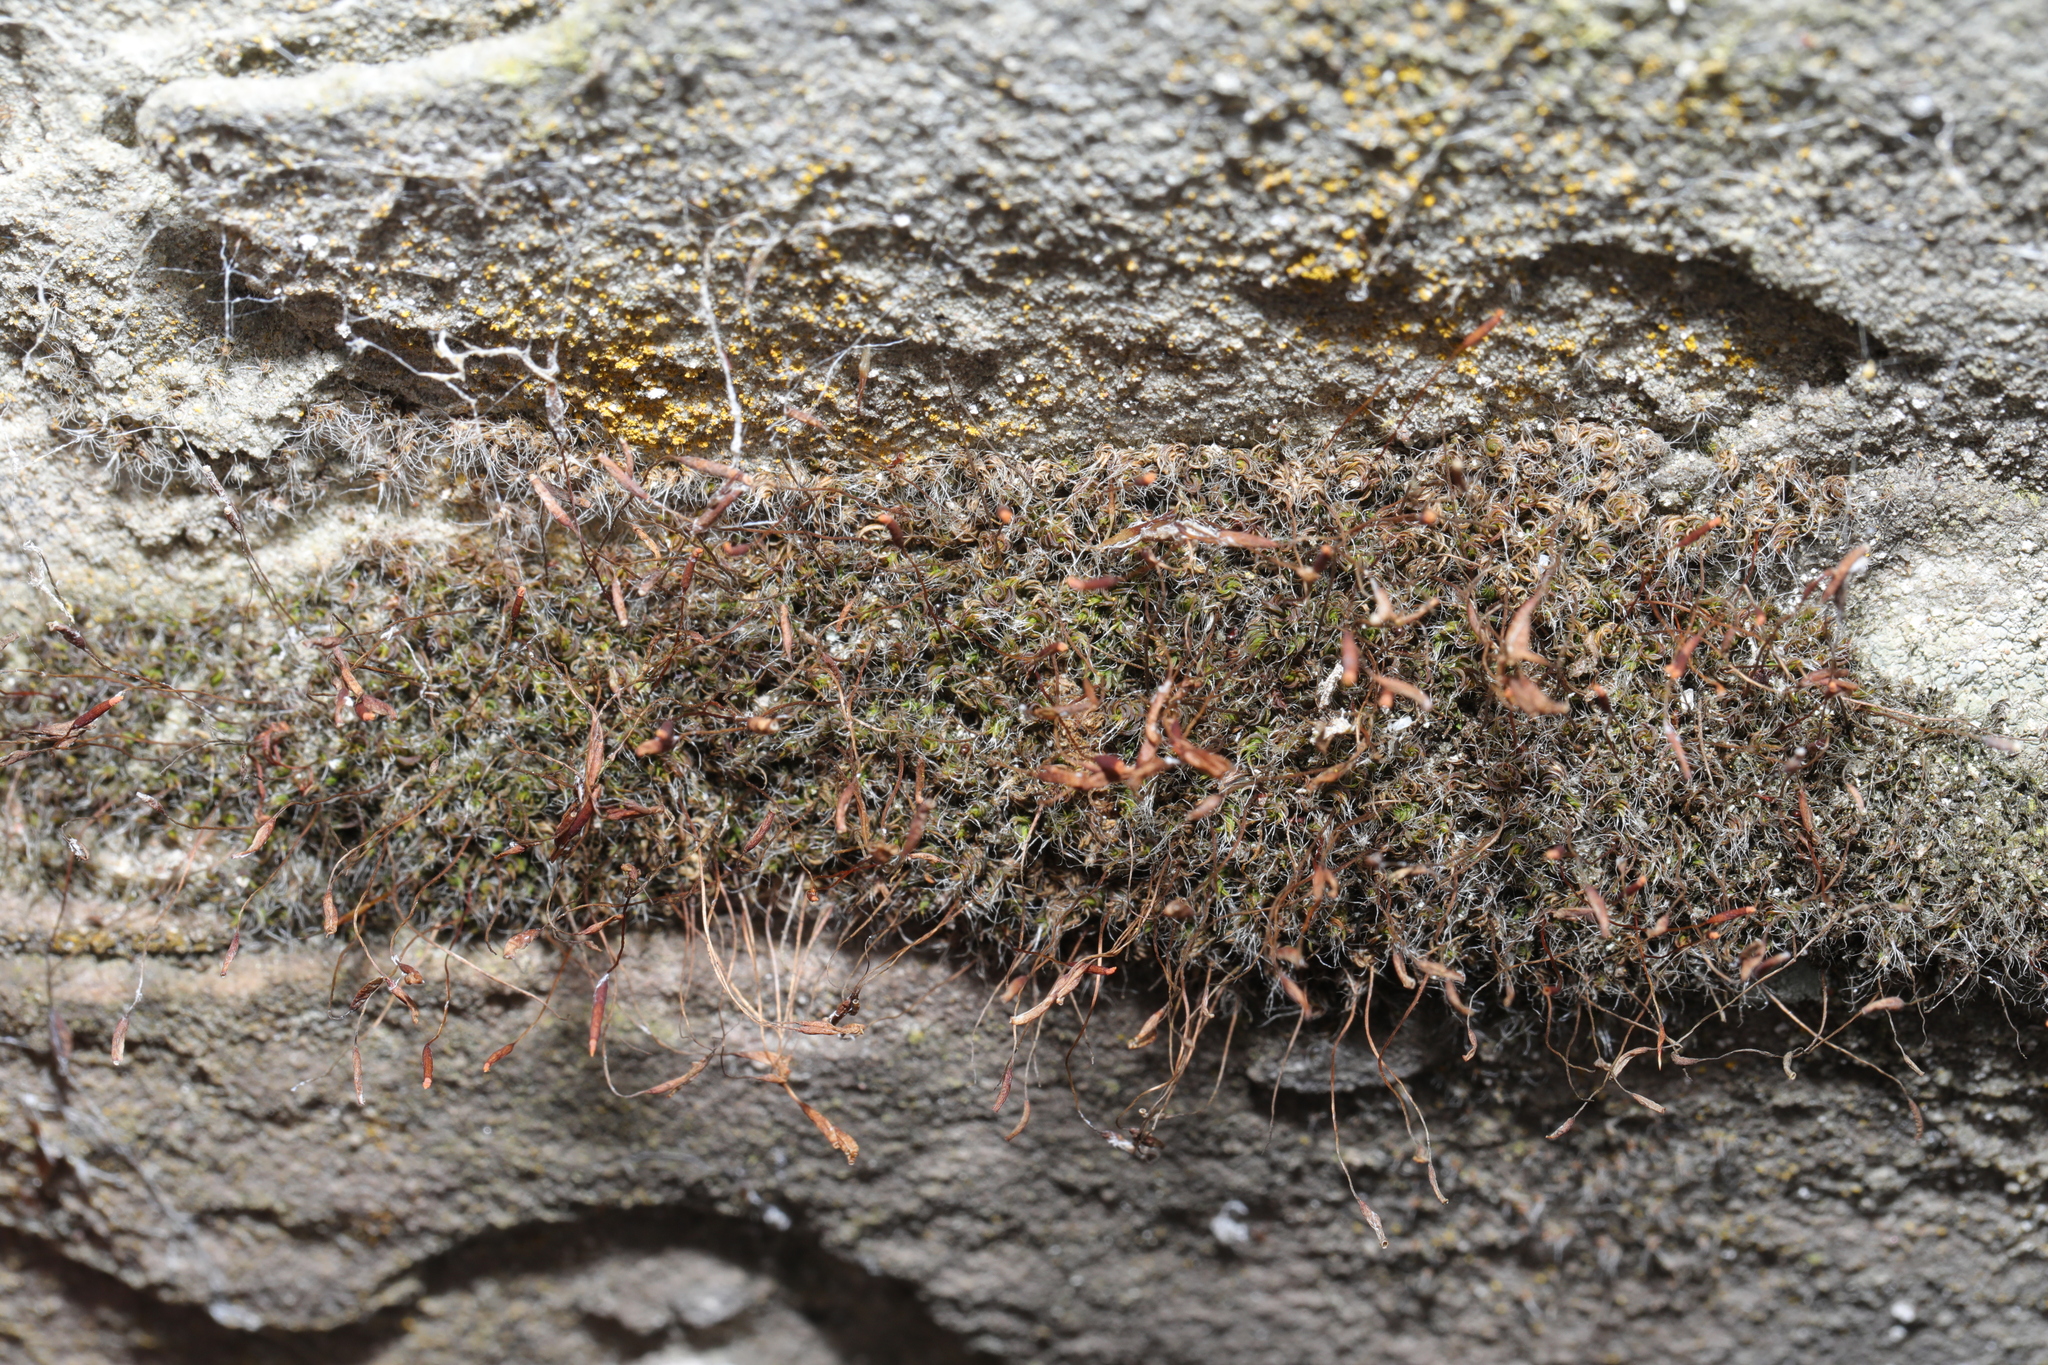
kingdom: Plantae
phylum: Bryophyta
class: Bryopsida
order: Pottiales
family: Pottiaceae
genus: Tortula
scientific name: Tortula muralis
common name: Wall screw-moss
